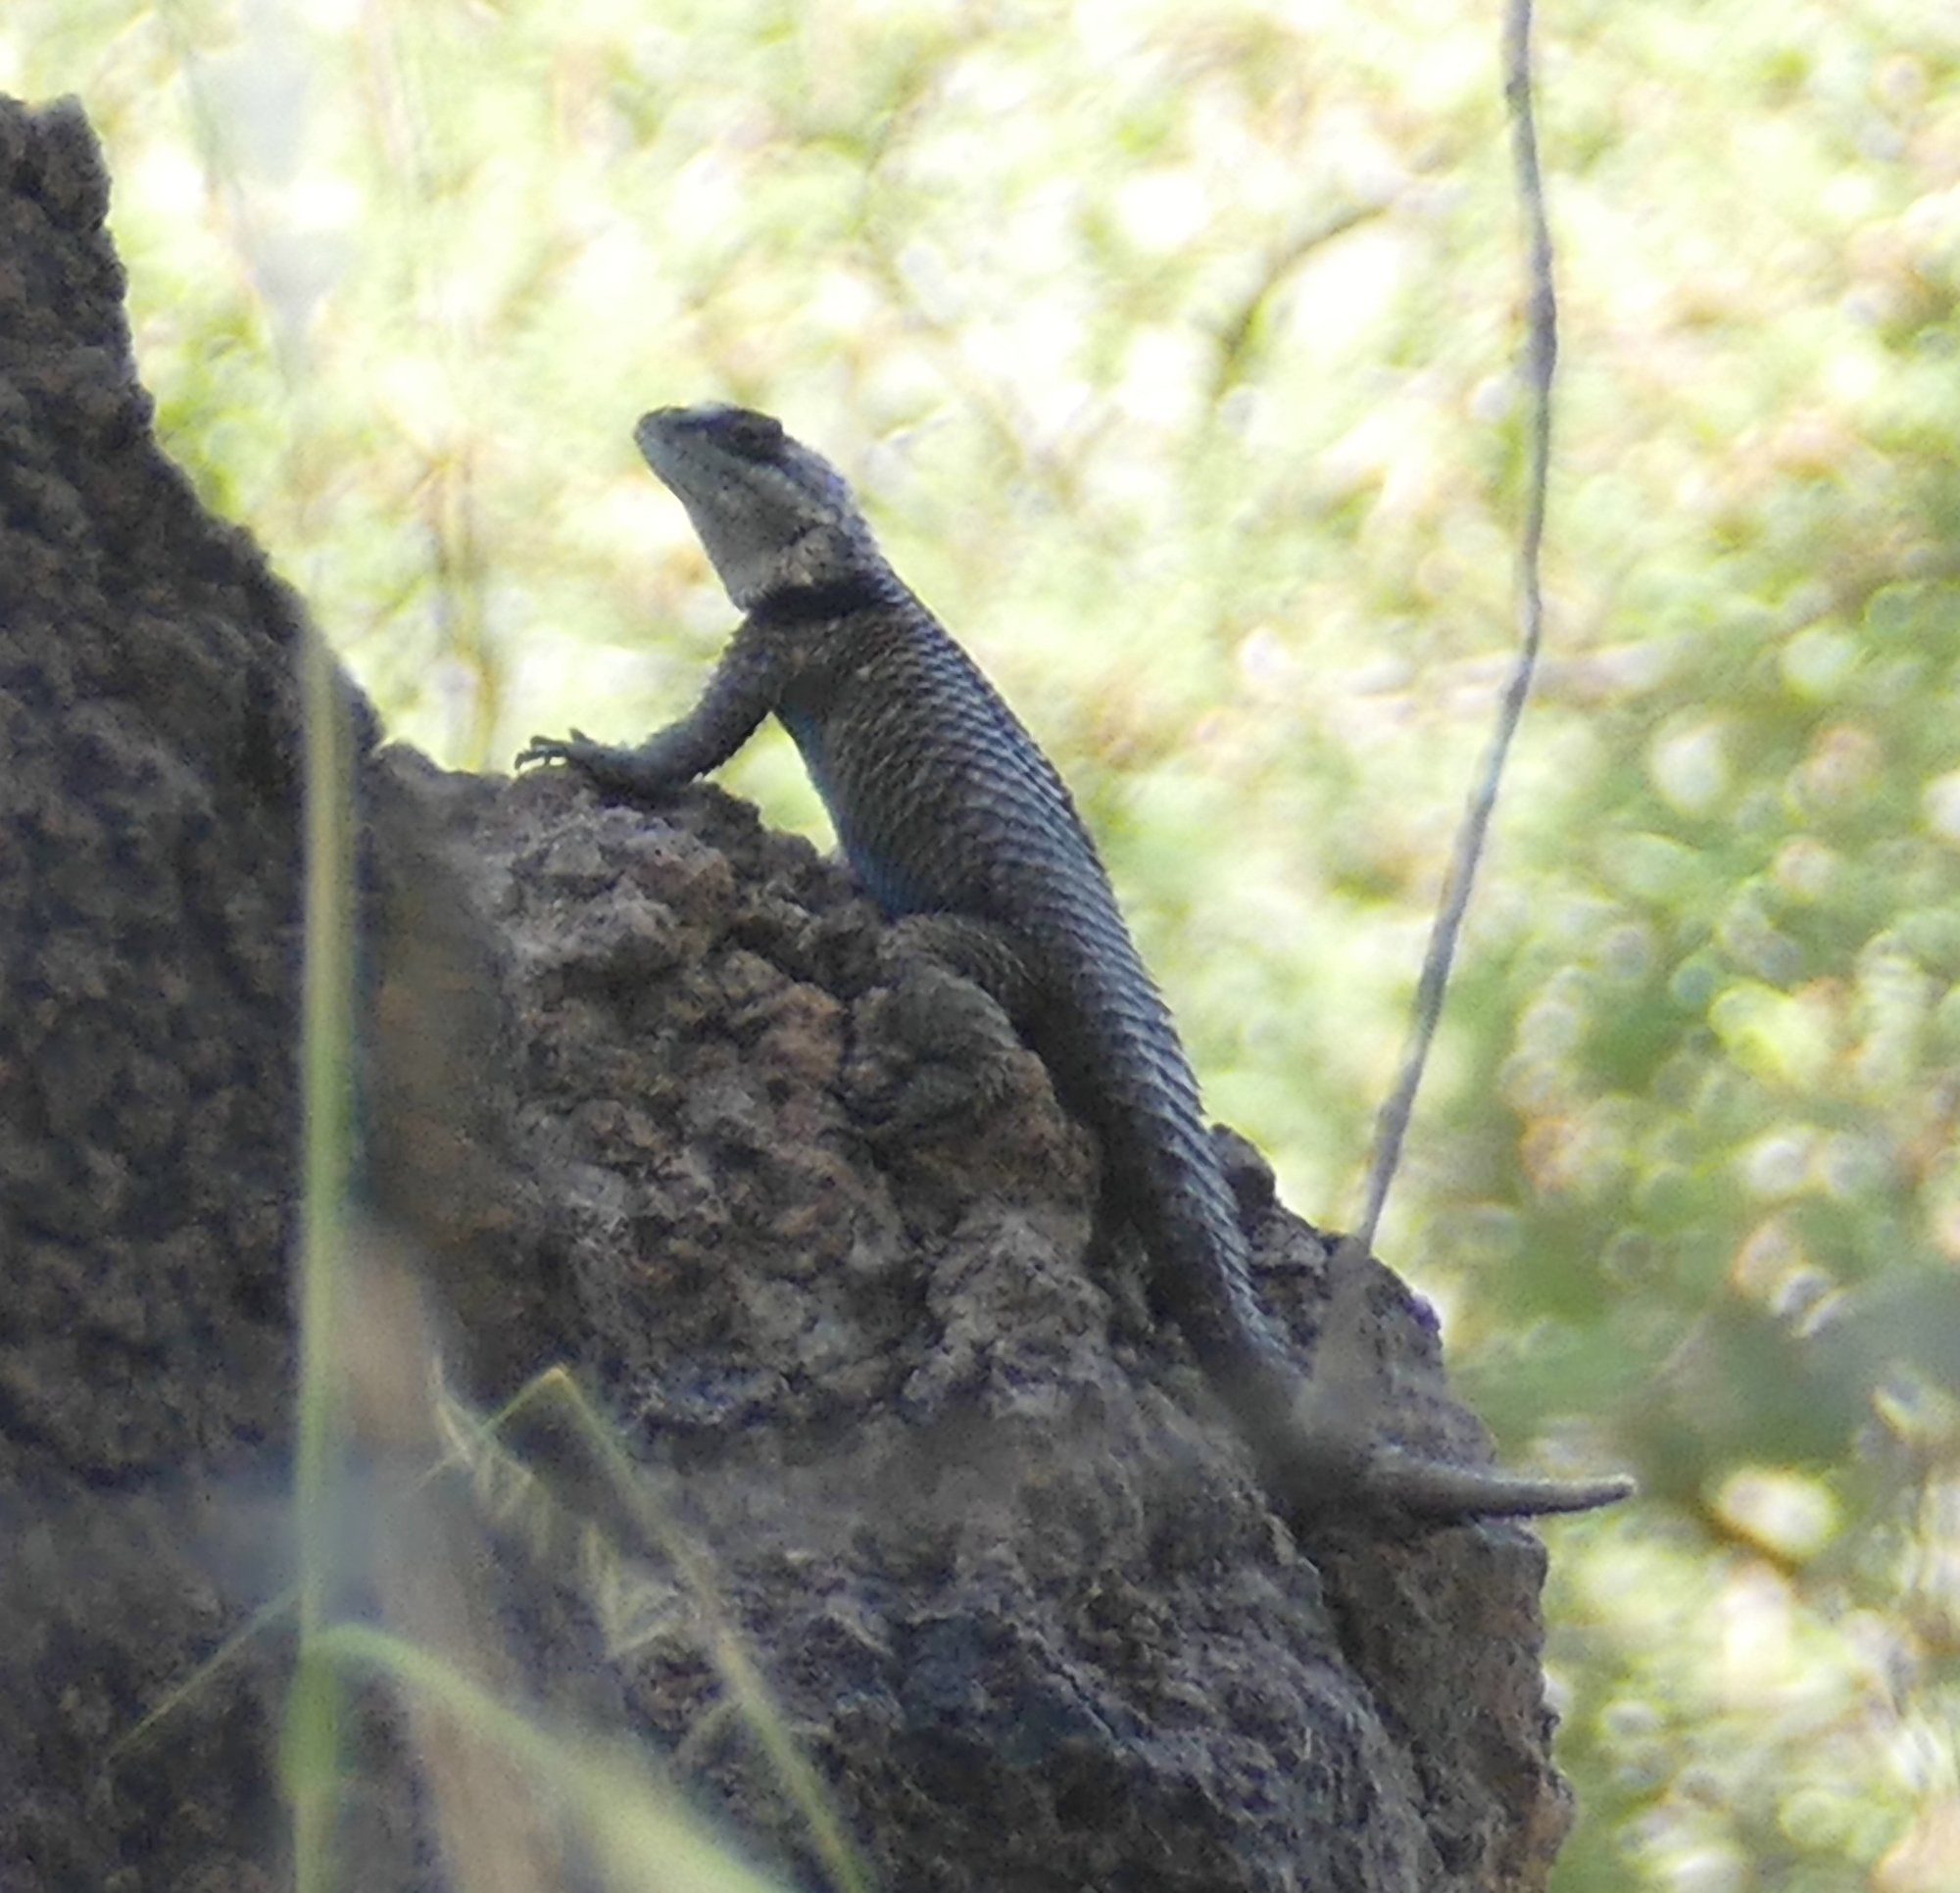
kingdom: Animalia
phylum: Chordata
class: Squamata
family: Phrynosomatidae
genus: Sceloporus
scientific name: Sceloporus poinsettii
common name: Crevice spiny lizard
